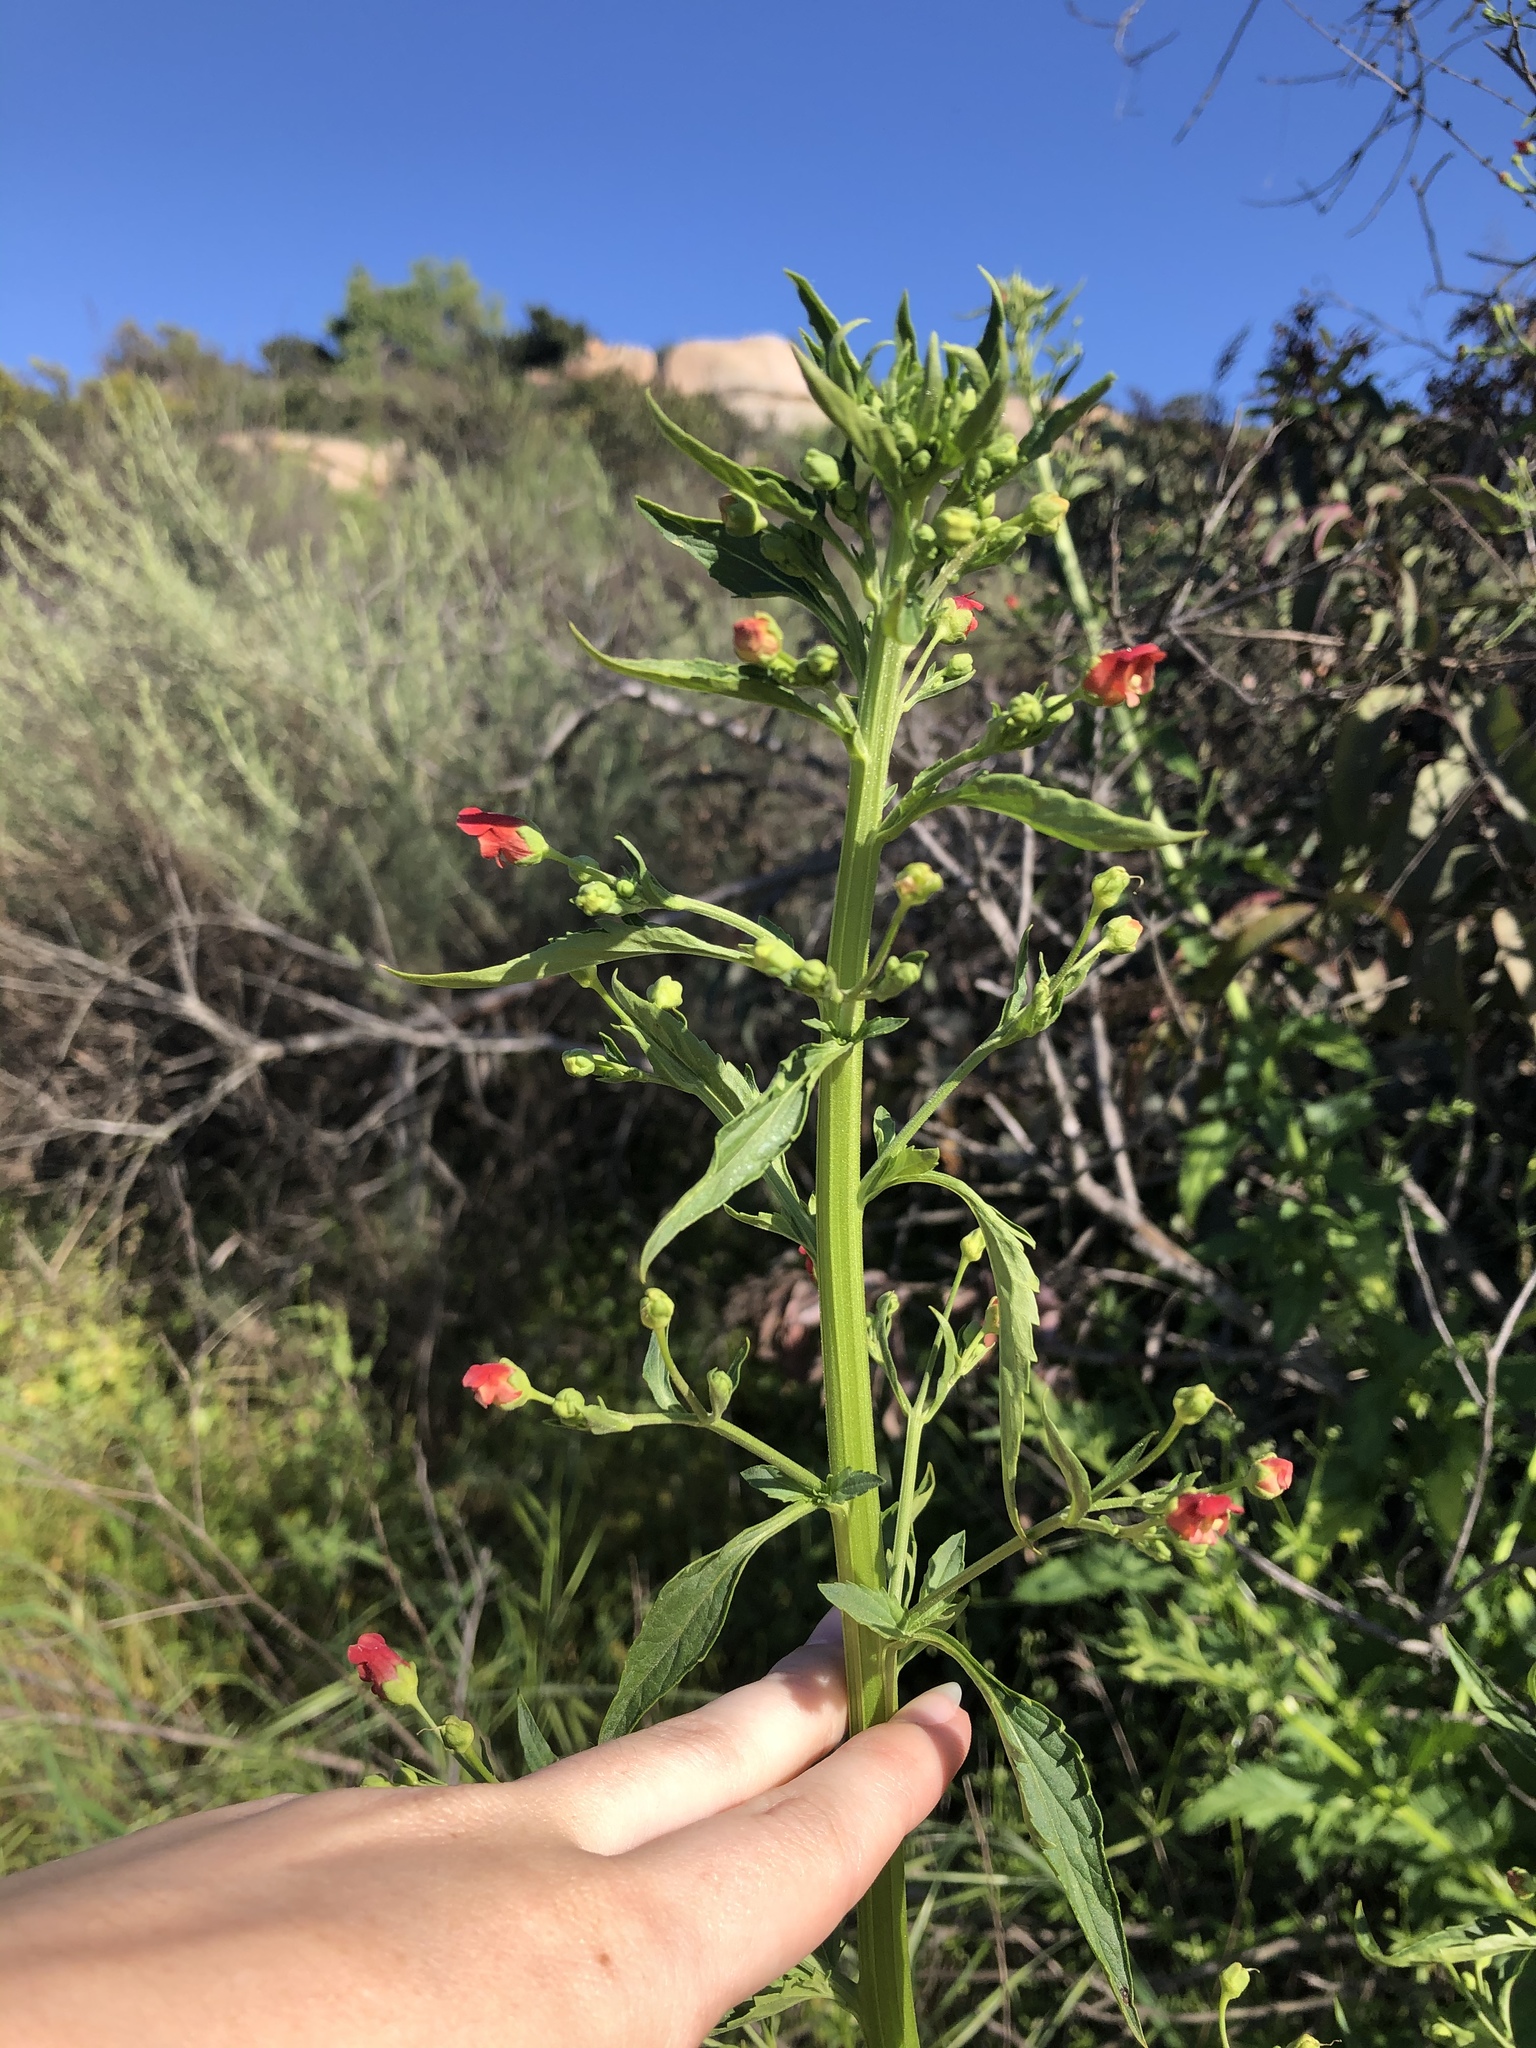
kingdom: Plantae
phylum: Tracheophyta
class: Magnoliopsida
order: Lamiales
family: Scrophulariaceae
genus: Scrophularia
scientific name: Scrophularia californica
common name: California figwort
